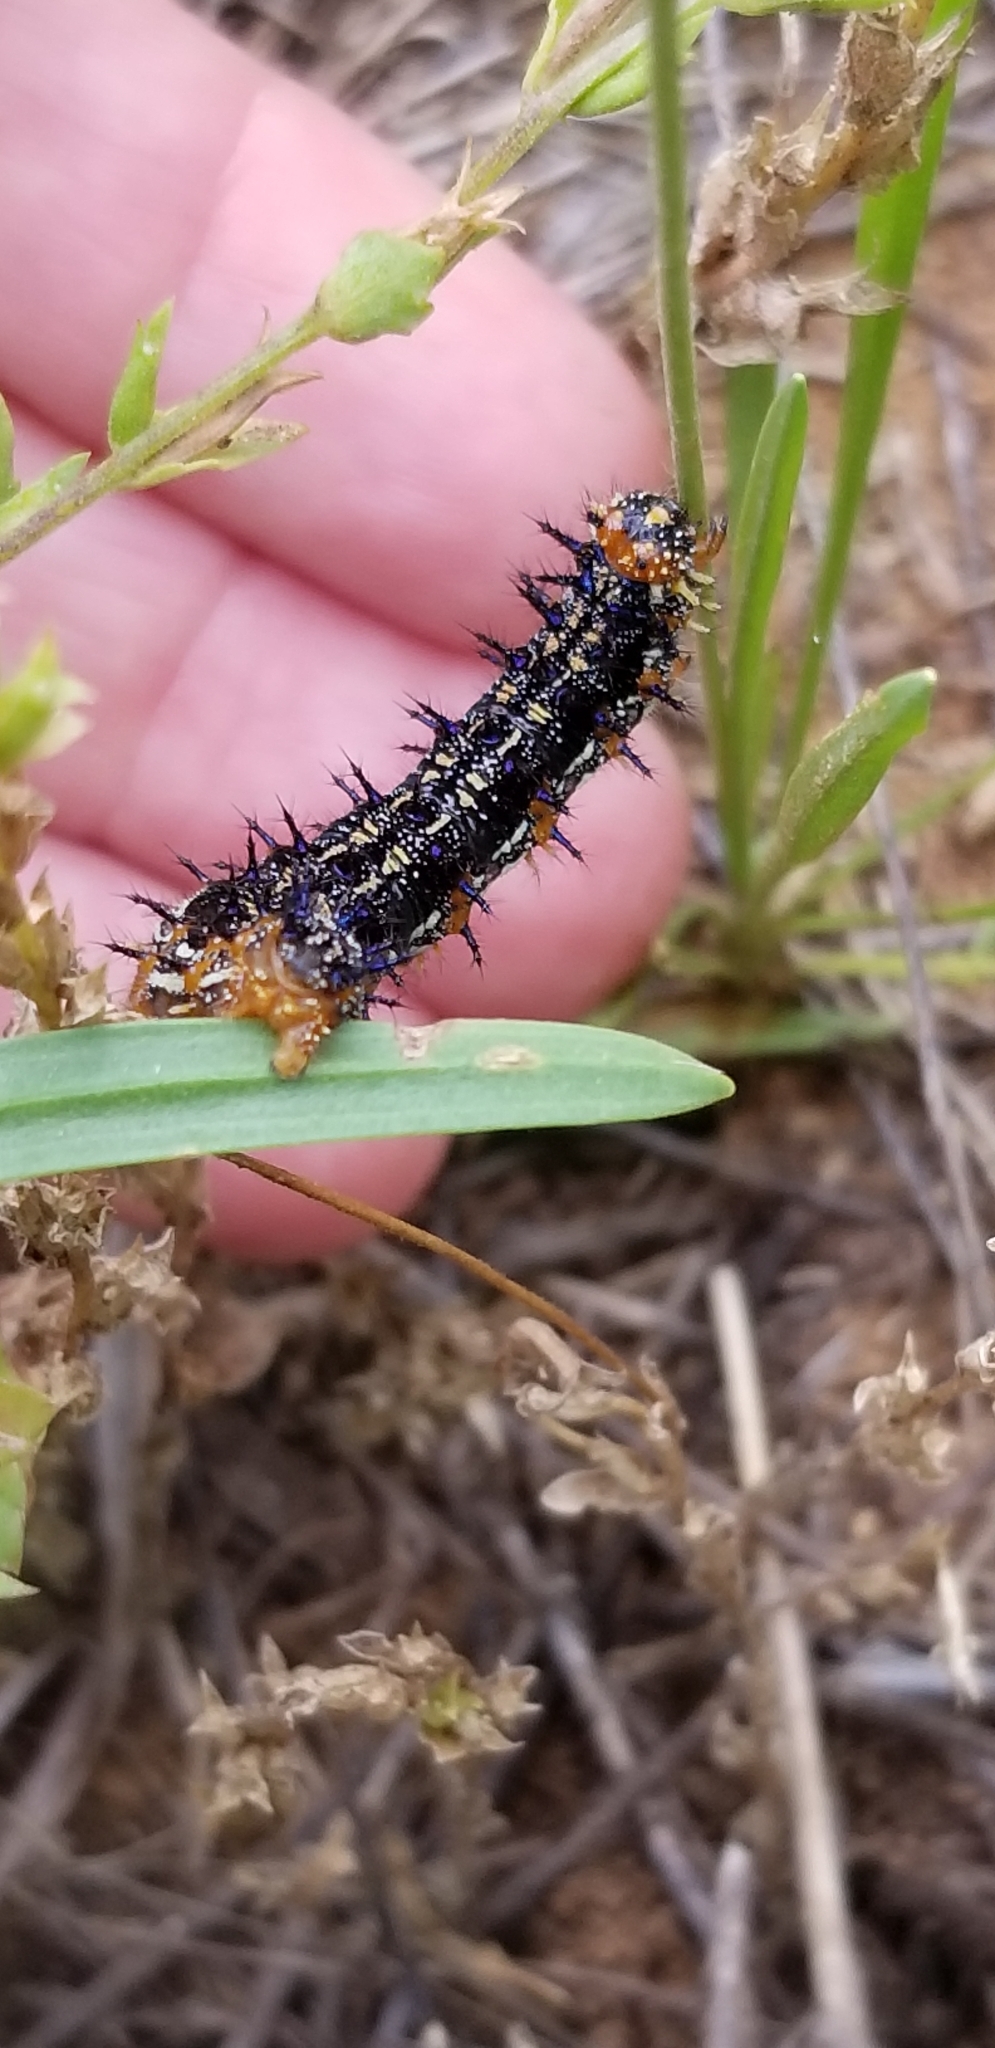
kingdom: Animalia
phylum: Arthropoda
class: Insecta
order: Lepidoptera
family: Nymphalidae
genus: Junonia
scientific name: Junonia coenia
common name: Common buckeye
